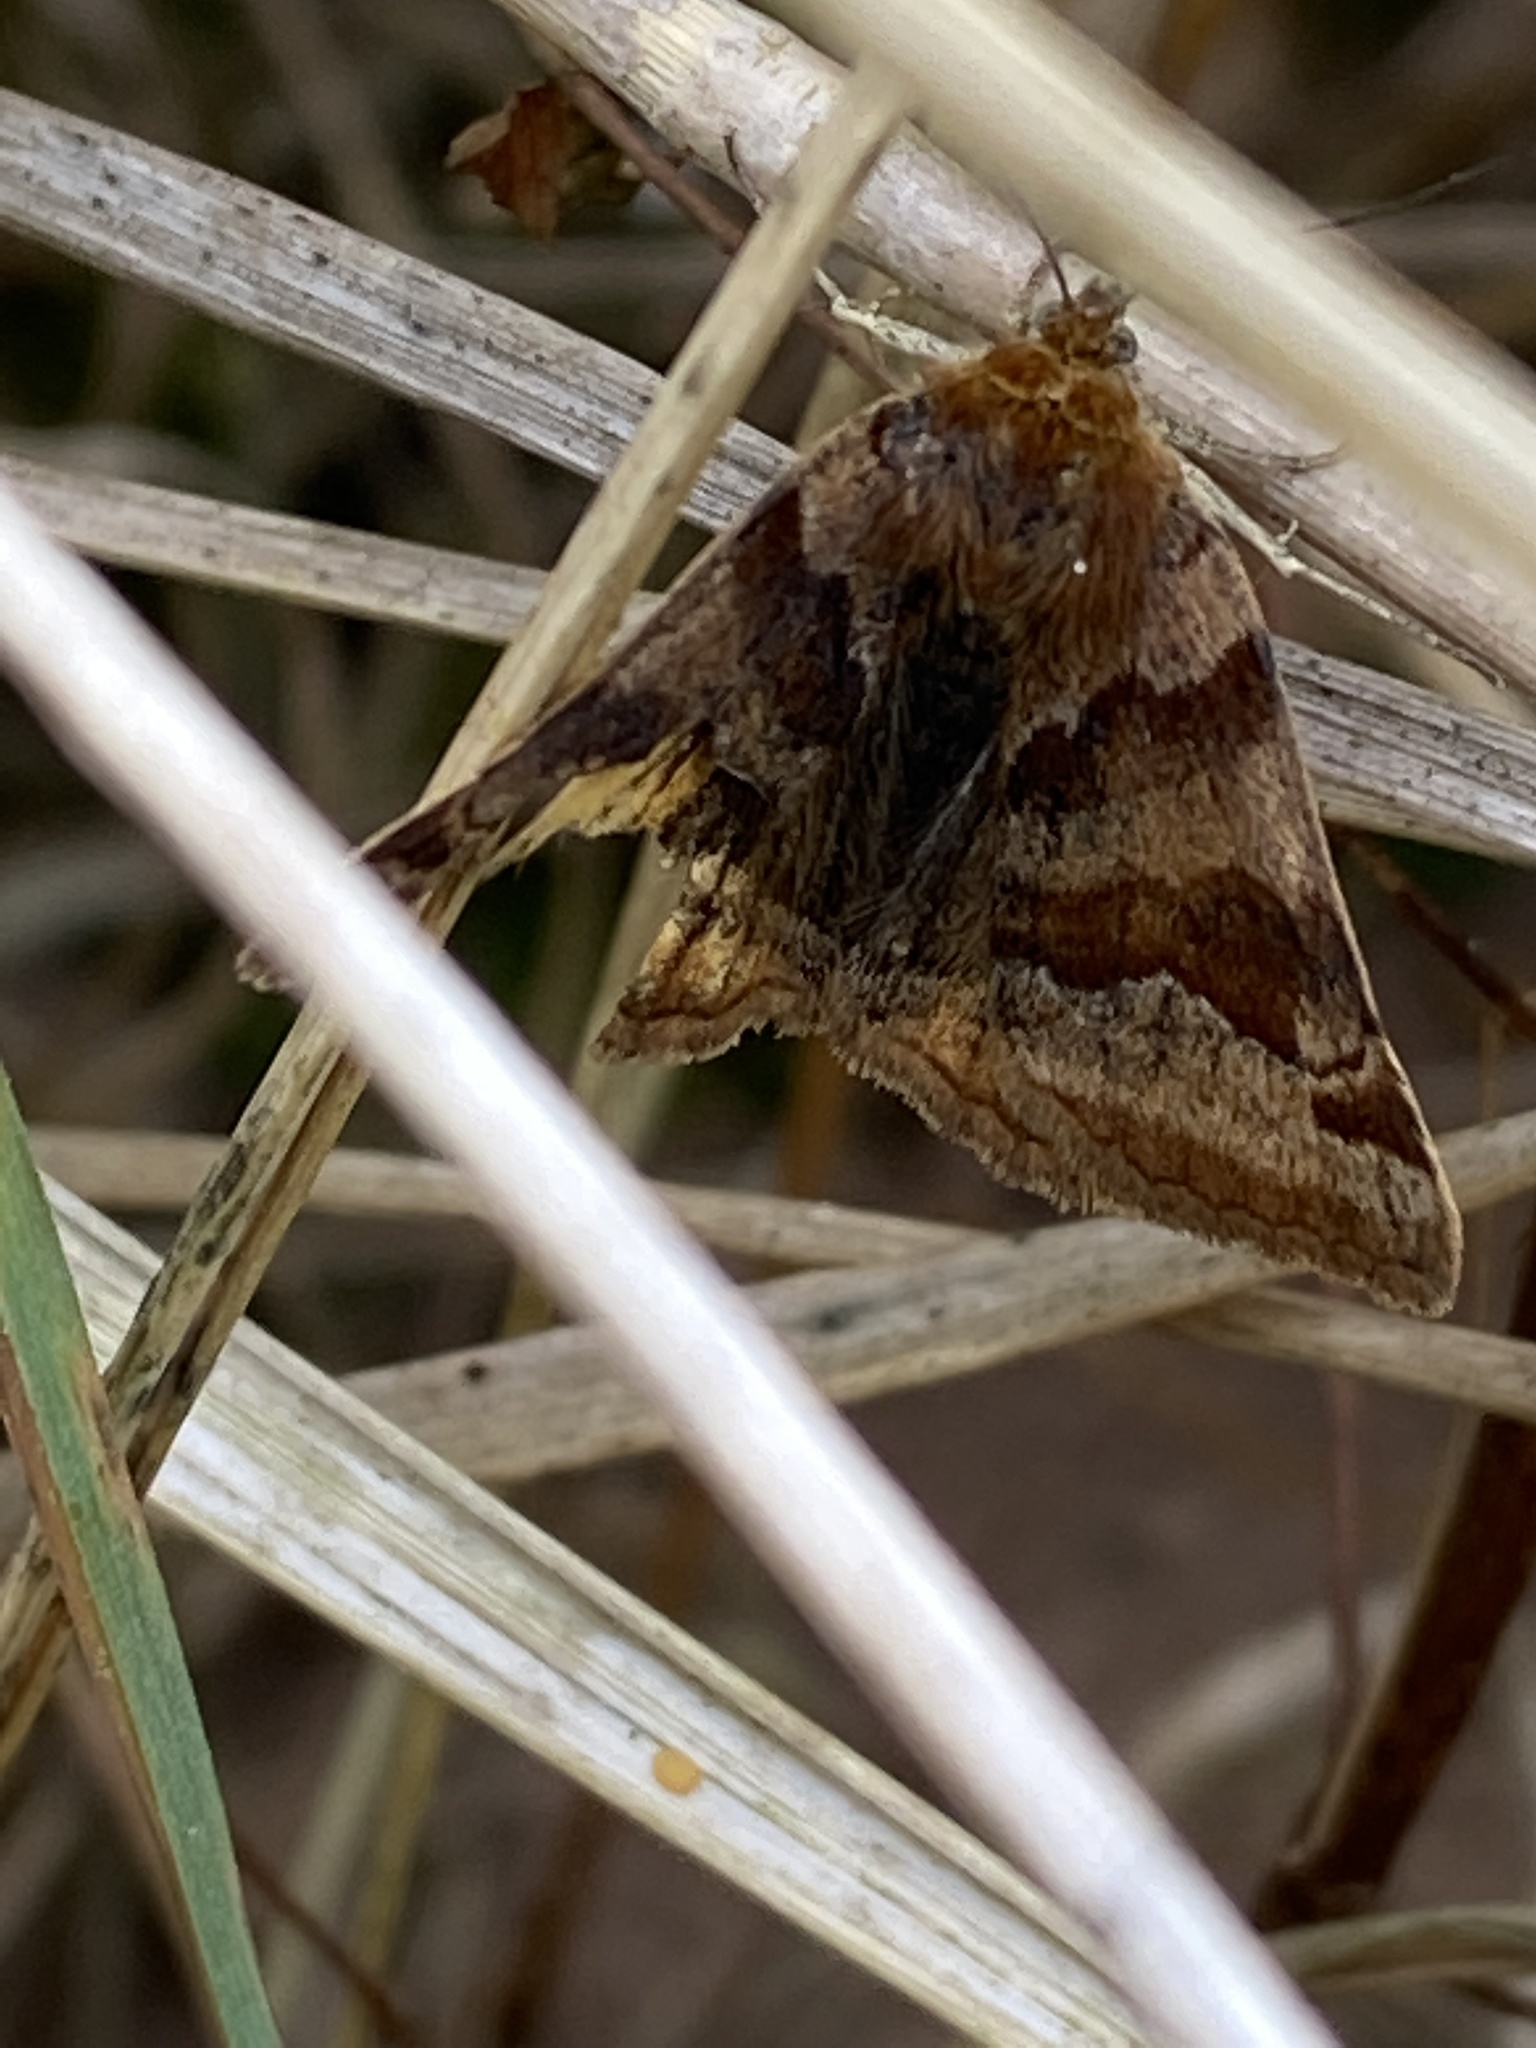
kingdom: Animalia
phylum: Arthropoda
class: Insecta
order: Lepidoptera
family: Erebidae
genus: Euclidia
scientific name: Euclidia glyphica
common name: Burnet companion
